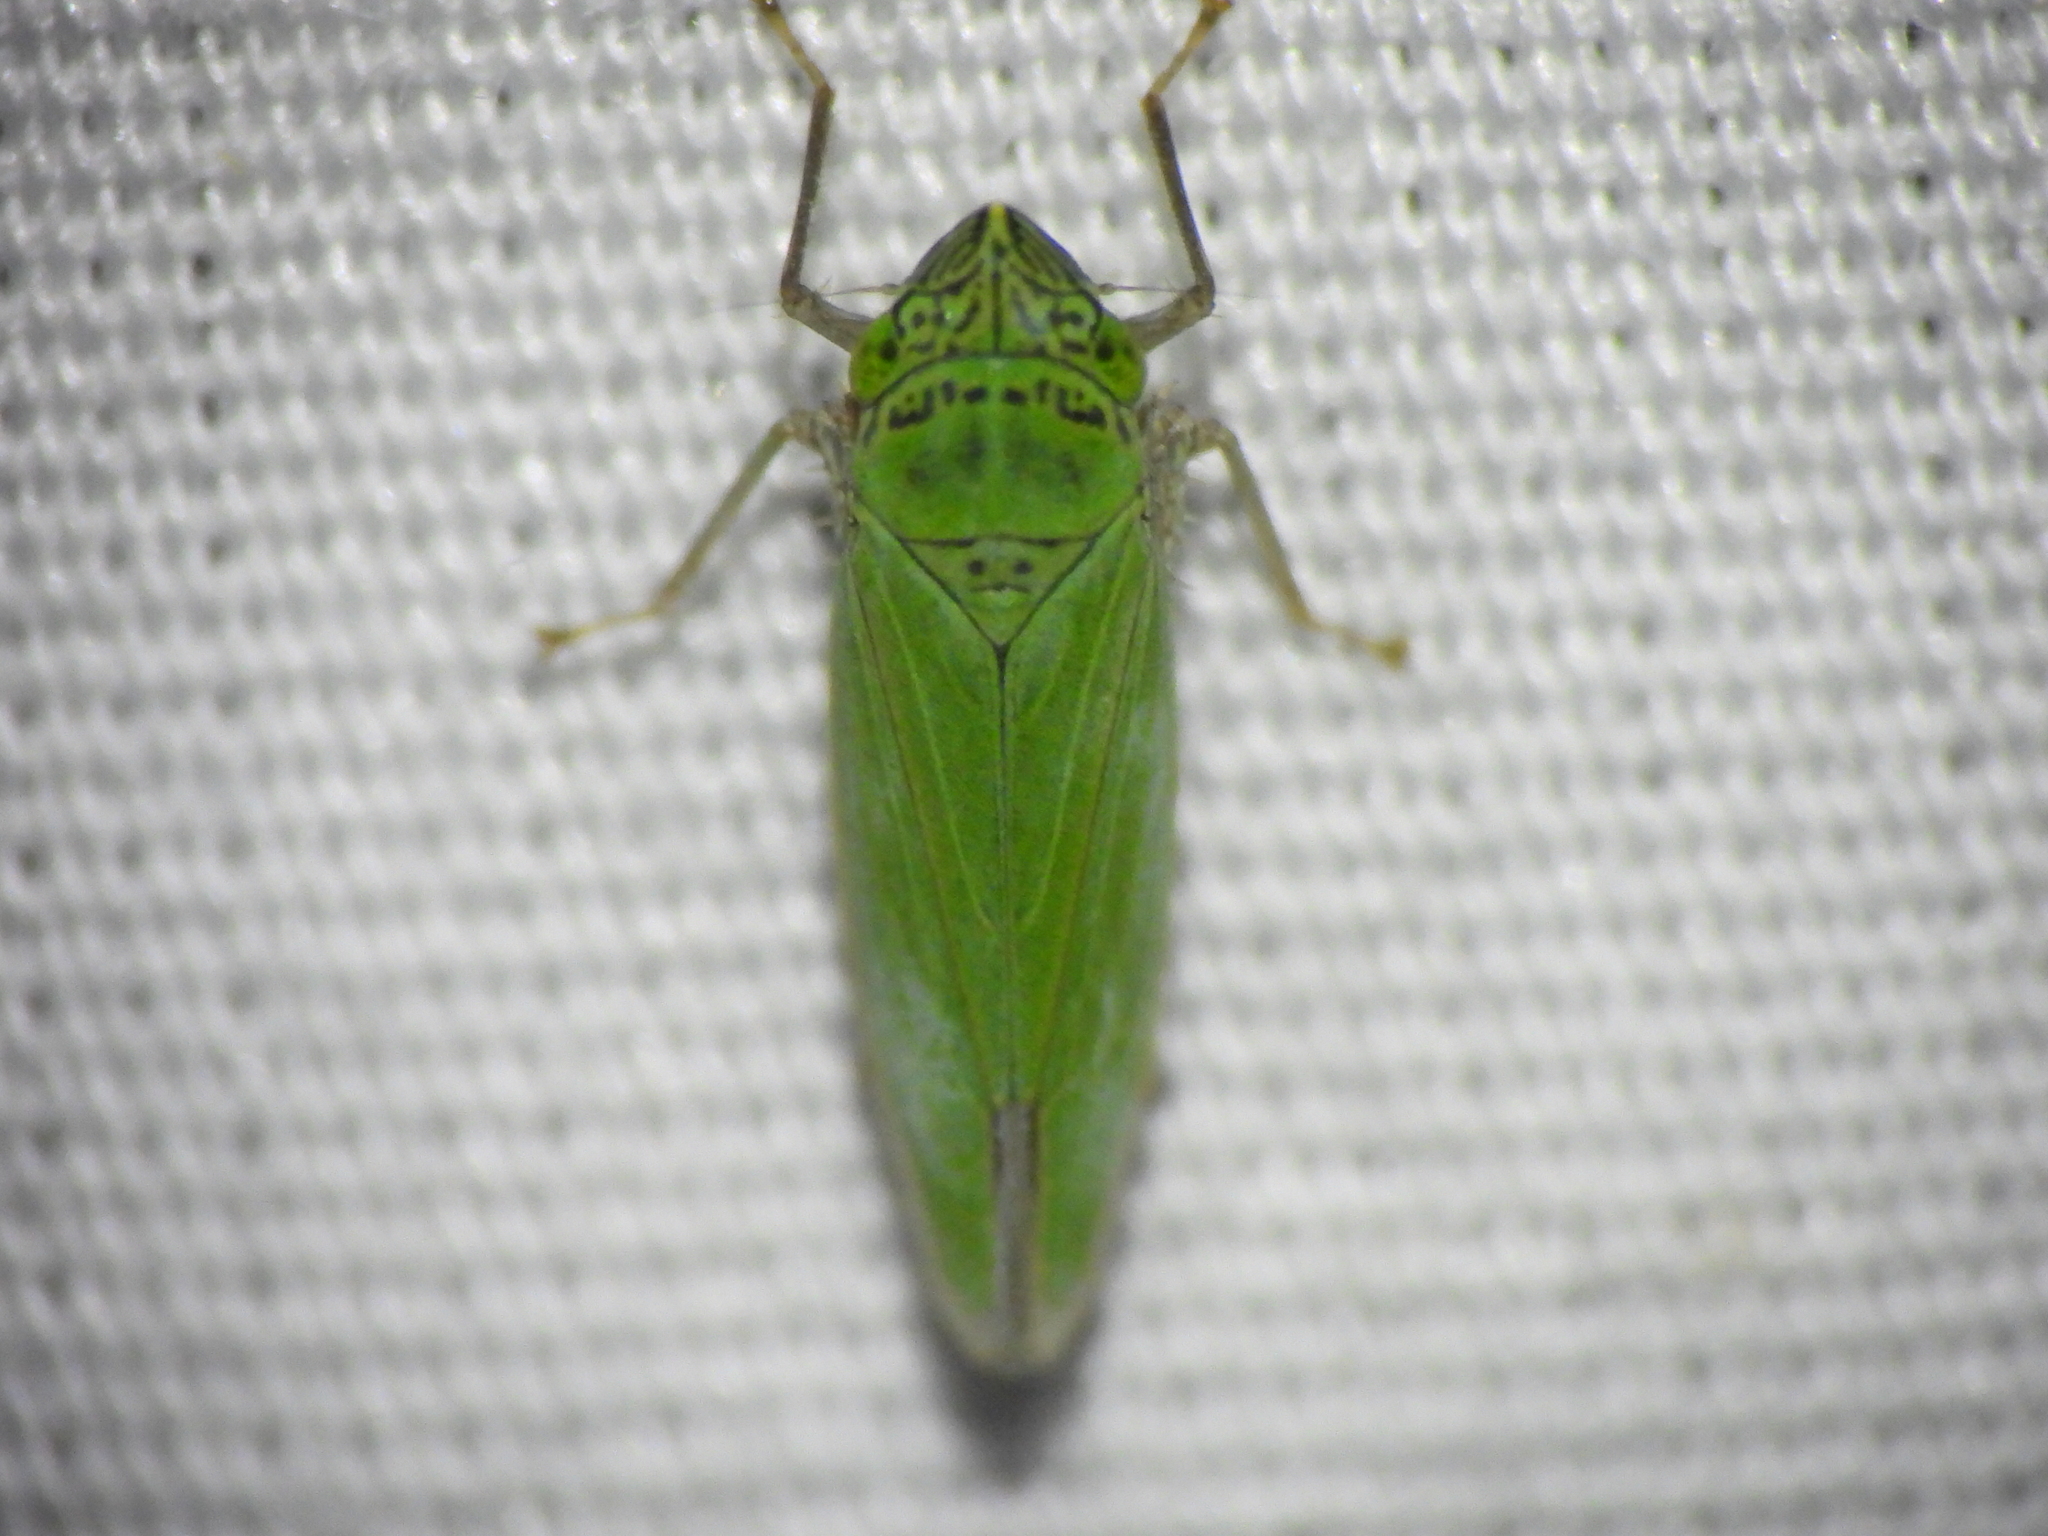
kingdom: Animalia
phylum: Arthropoda
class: Insecta
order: Hemiptera
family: Cicadellidae
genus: Draeculacephala
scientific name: Draeculacephala inscripta
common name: Leafhopper
